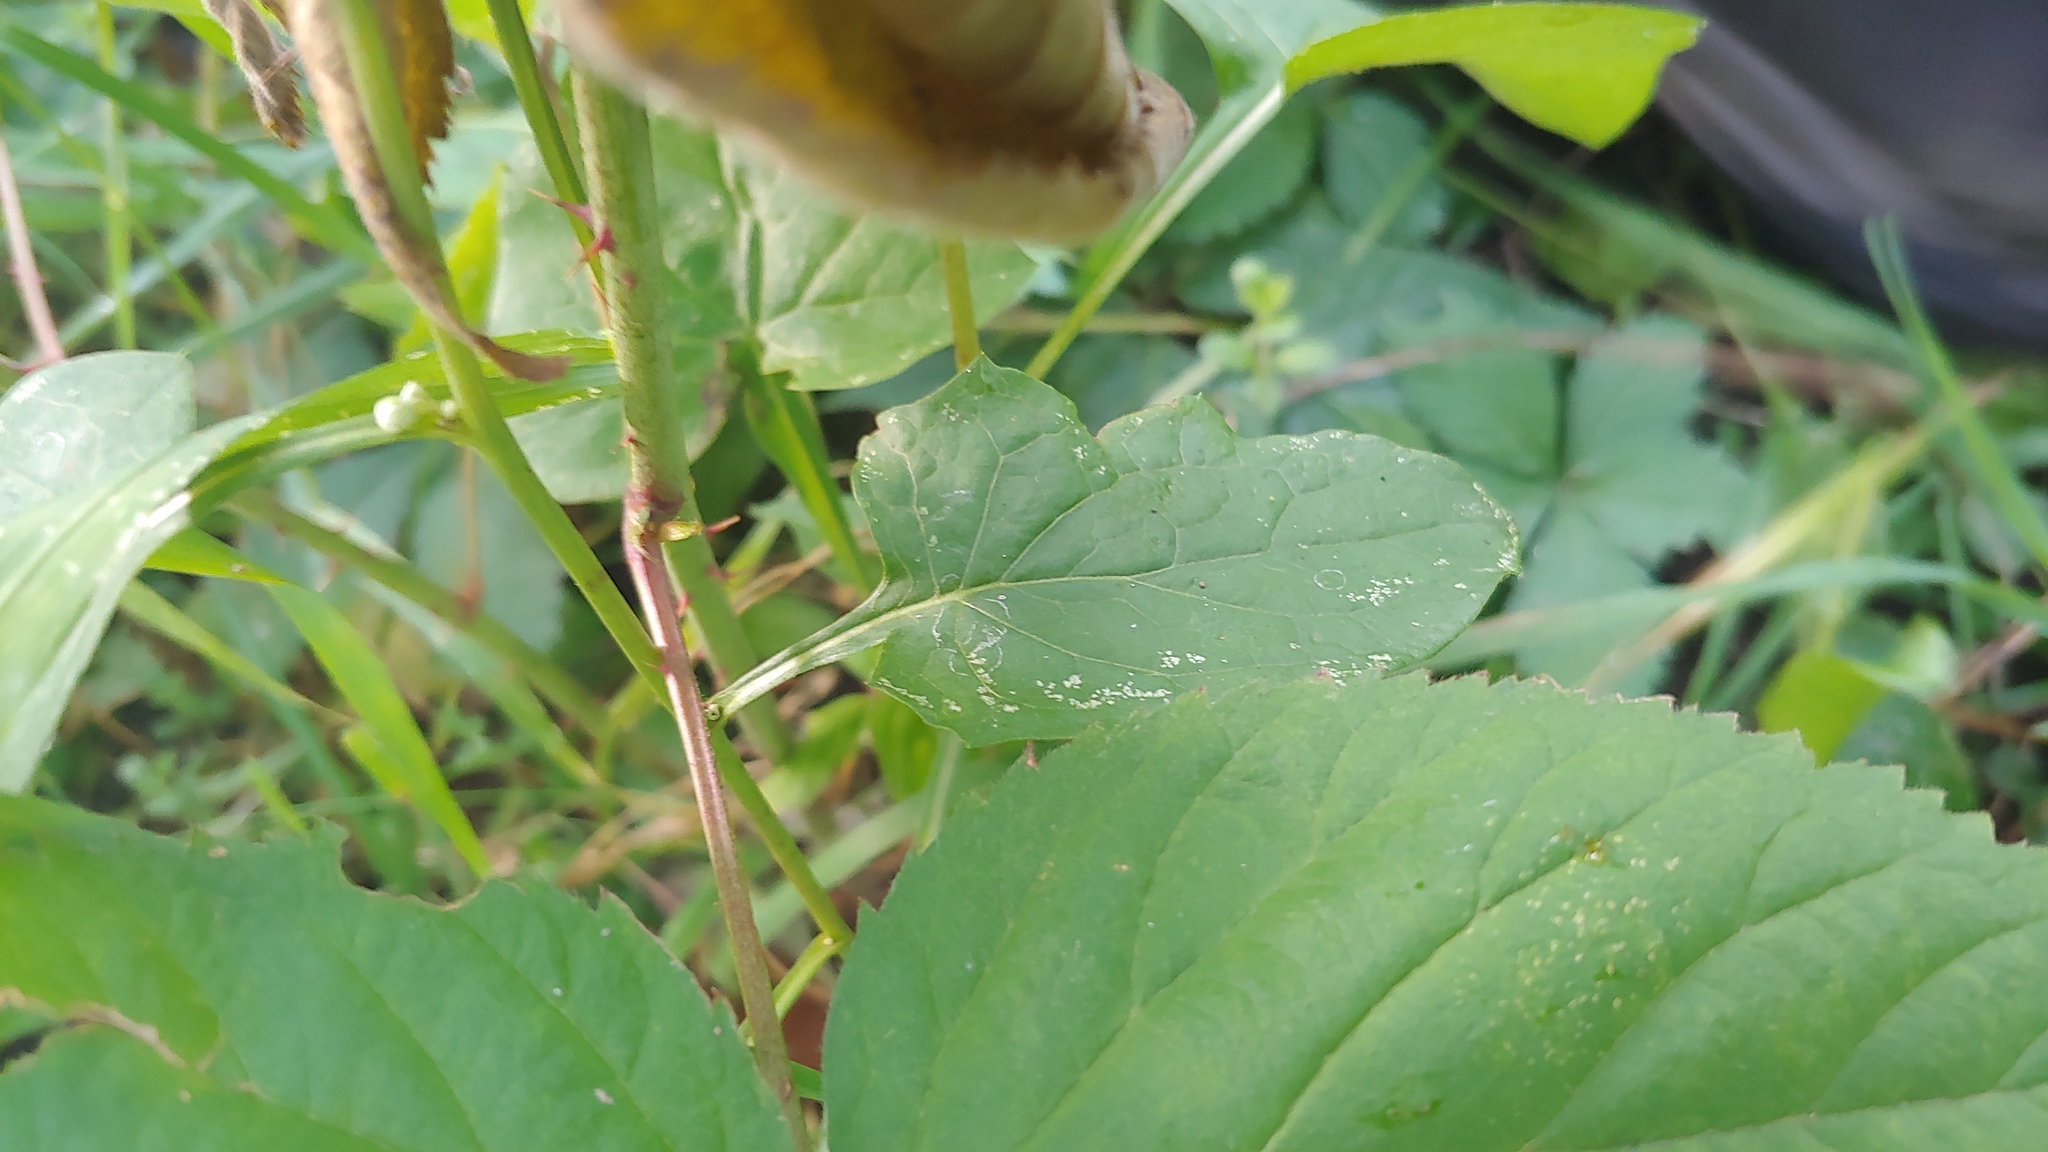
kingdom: Plantae
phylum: Tracheophyta
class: Magnoliopsida
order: Asterales
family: Asteraceae
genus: Nabalus
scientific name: Nabalus albus
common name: White rattlesnakeroot
